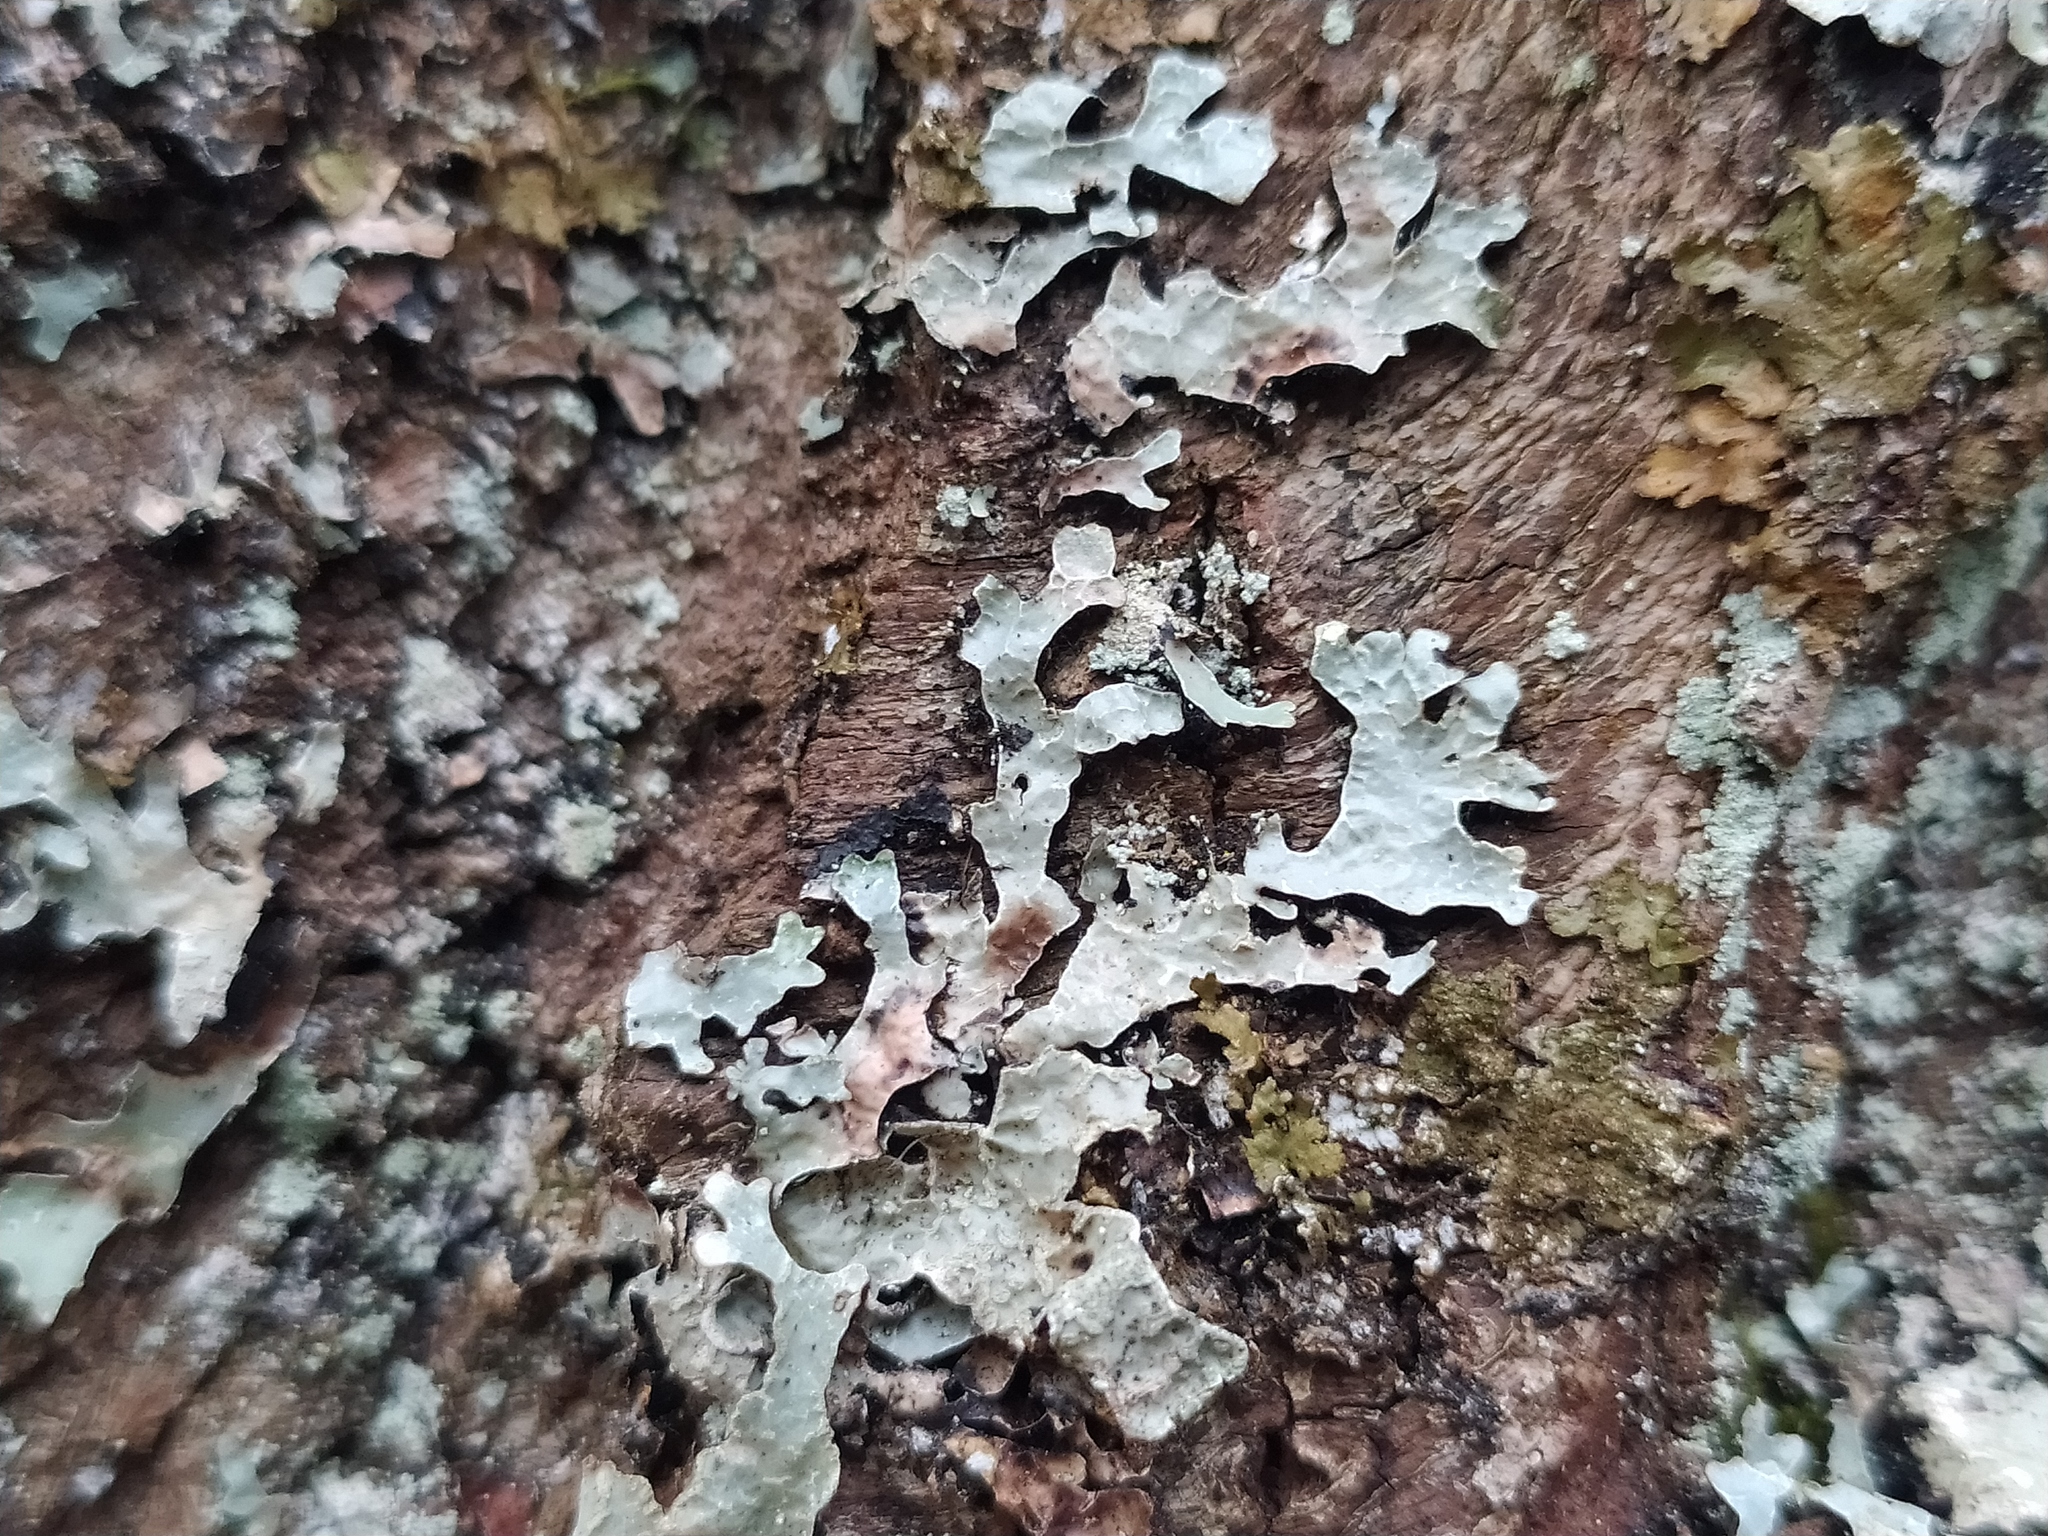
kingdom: Fungi
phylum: Ascomycota
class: Lecanoromycetes
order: Lecanorales
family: Parmeliaceae
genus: Parmelia
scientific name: Parmelia sulcata
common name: Netted shield lichen
